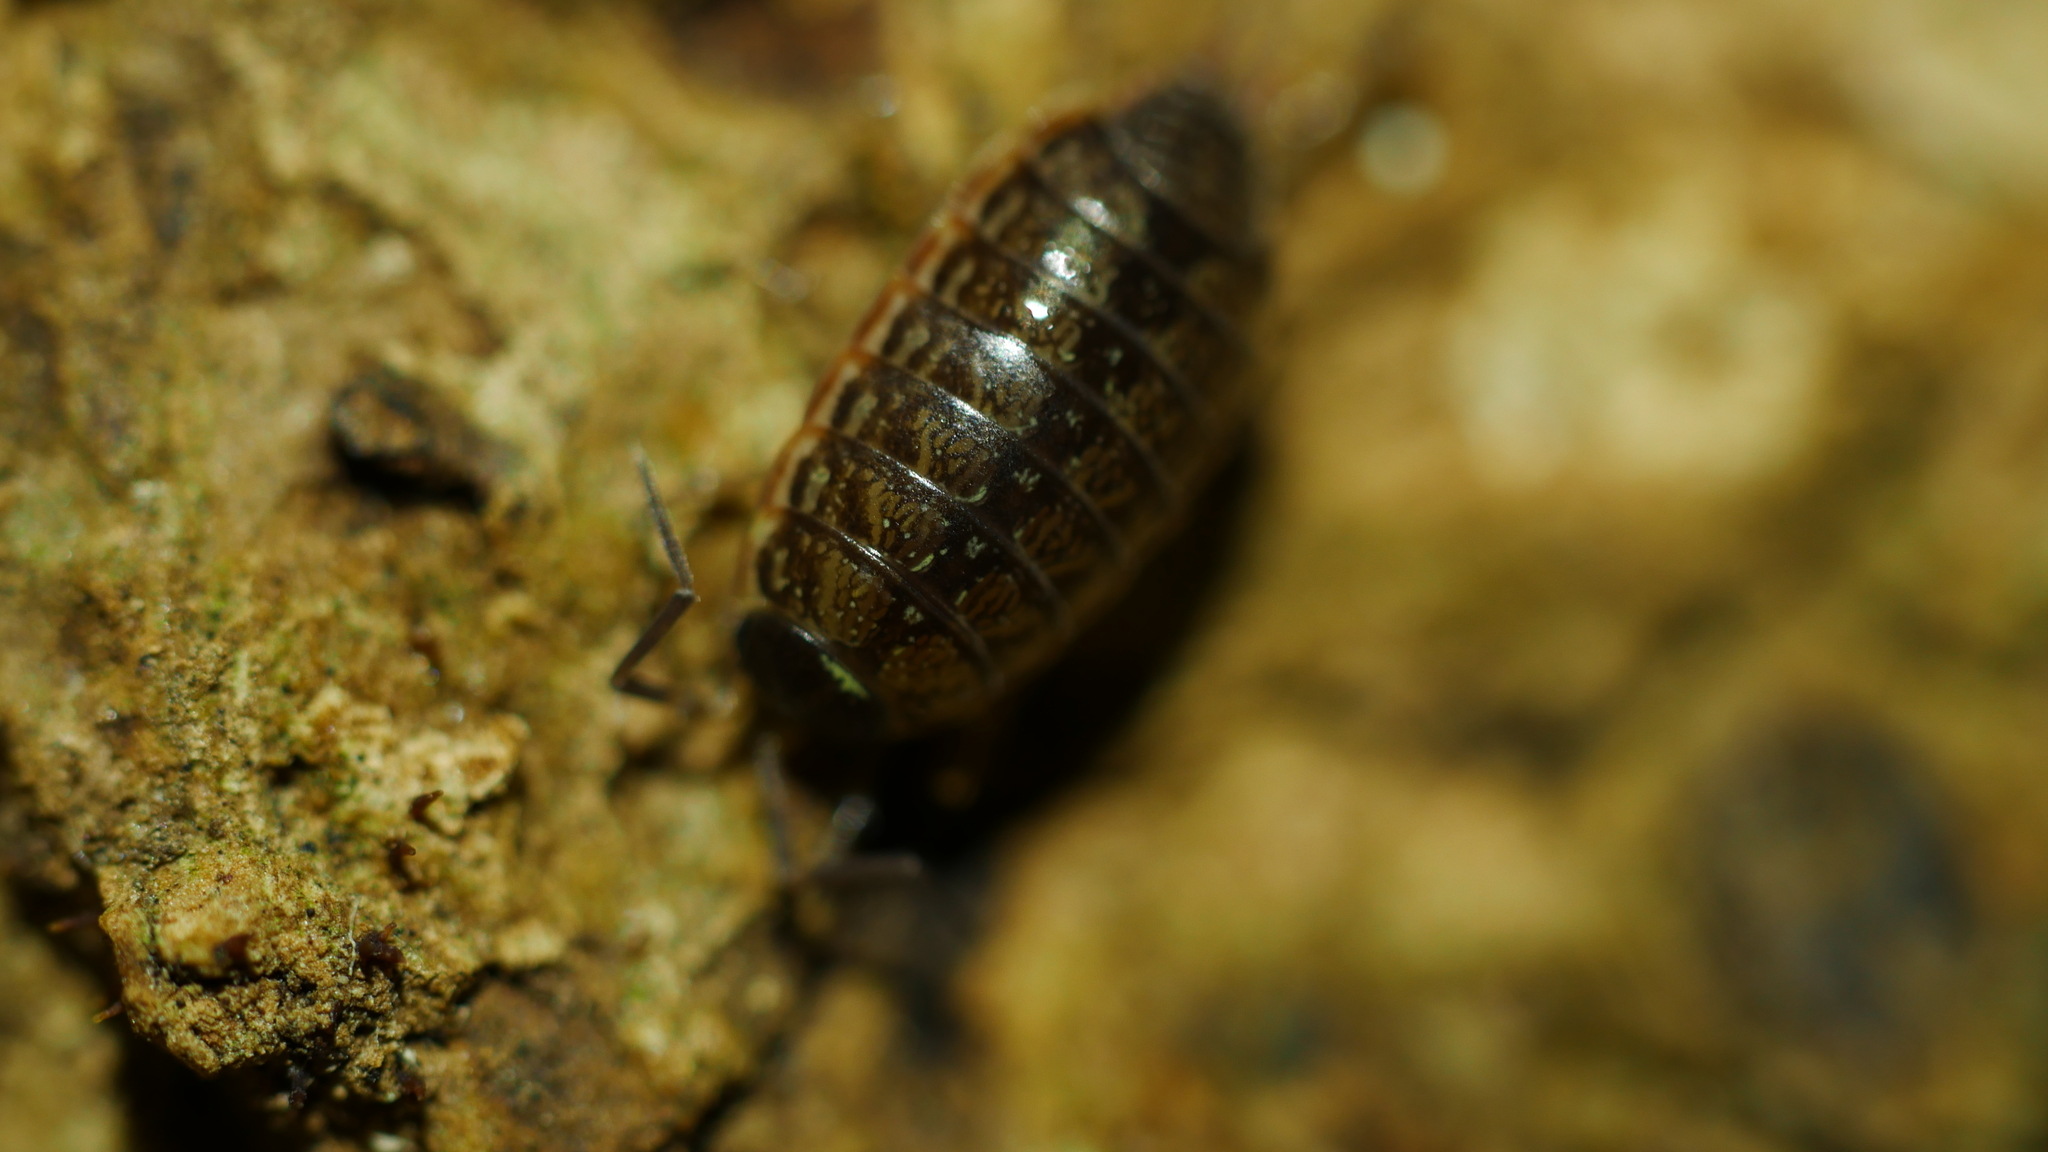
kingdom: Animalia
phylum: Arthropoda
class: Malacostraca
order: Isopoda
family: Philosciidae
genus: Philoscia
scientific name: Philoscia muscorum
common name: Common striped woodlouse
